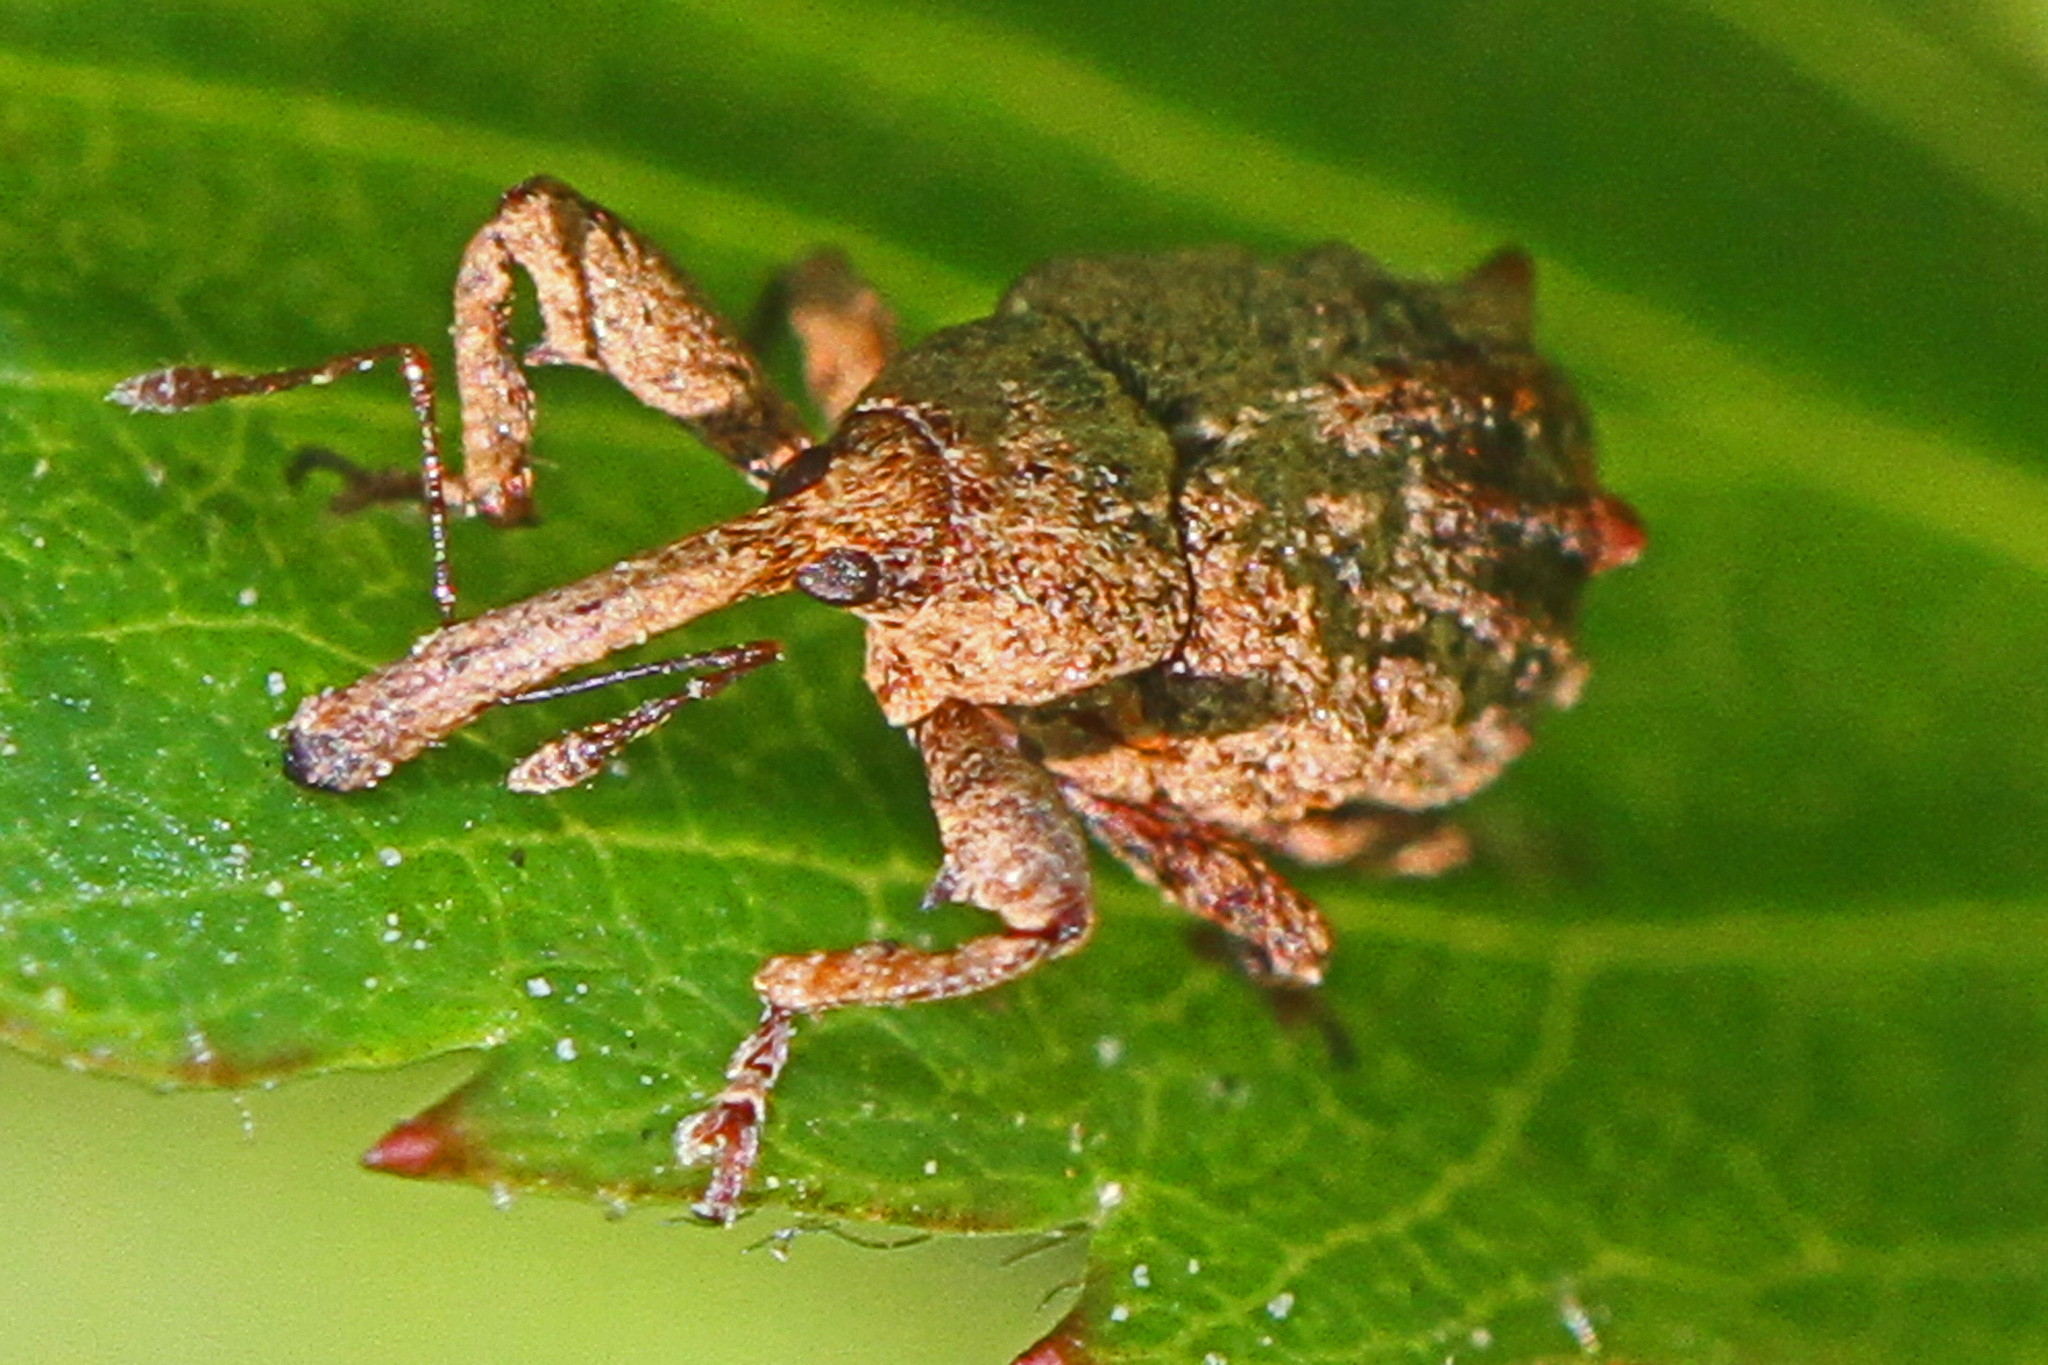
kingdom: Animalia
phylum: Arthropoda
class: Insecta
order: Coleoptera
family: Curculionidae
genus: Anthonomus
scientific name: Anthonomus quadrigibbus
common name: Apple curculio
